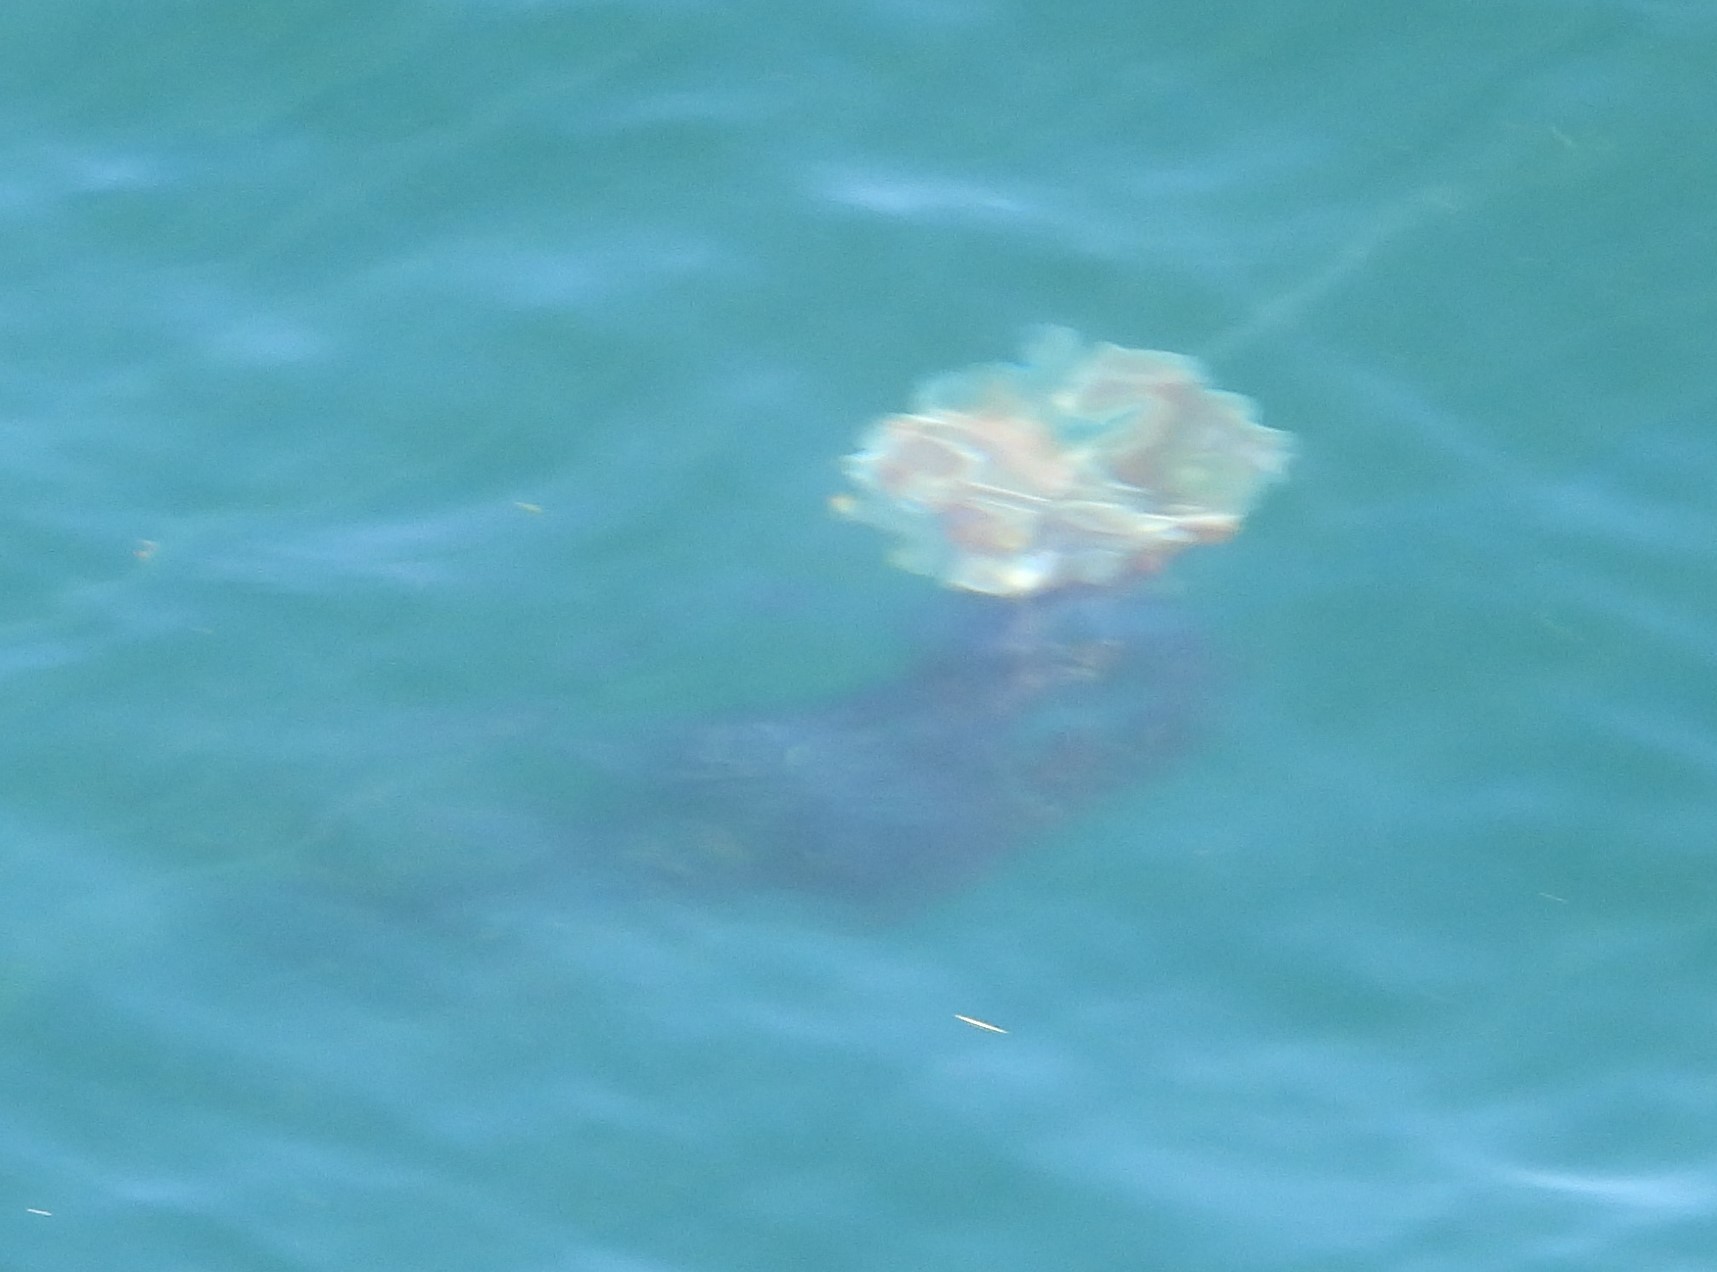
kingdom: Animalia
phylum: Cnidaria
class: Scyphozoa
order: Semaeostomeae
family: Cyaneidae
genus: Cyanea
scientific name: Cyanea ferruginea
